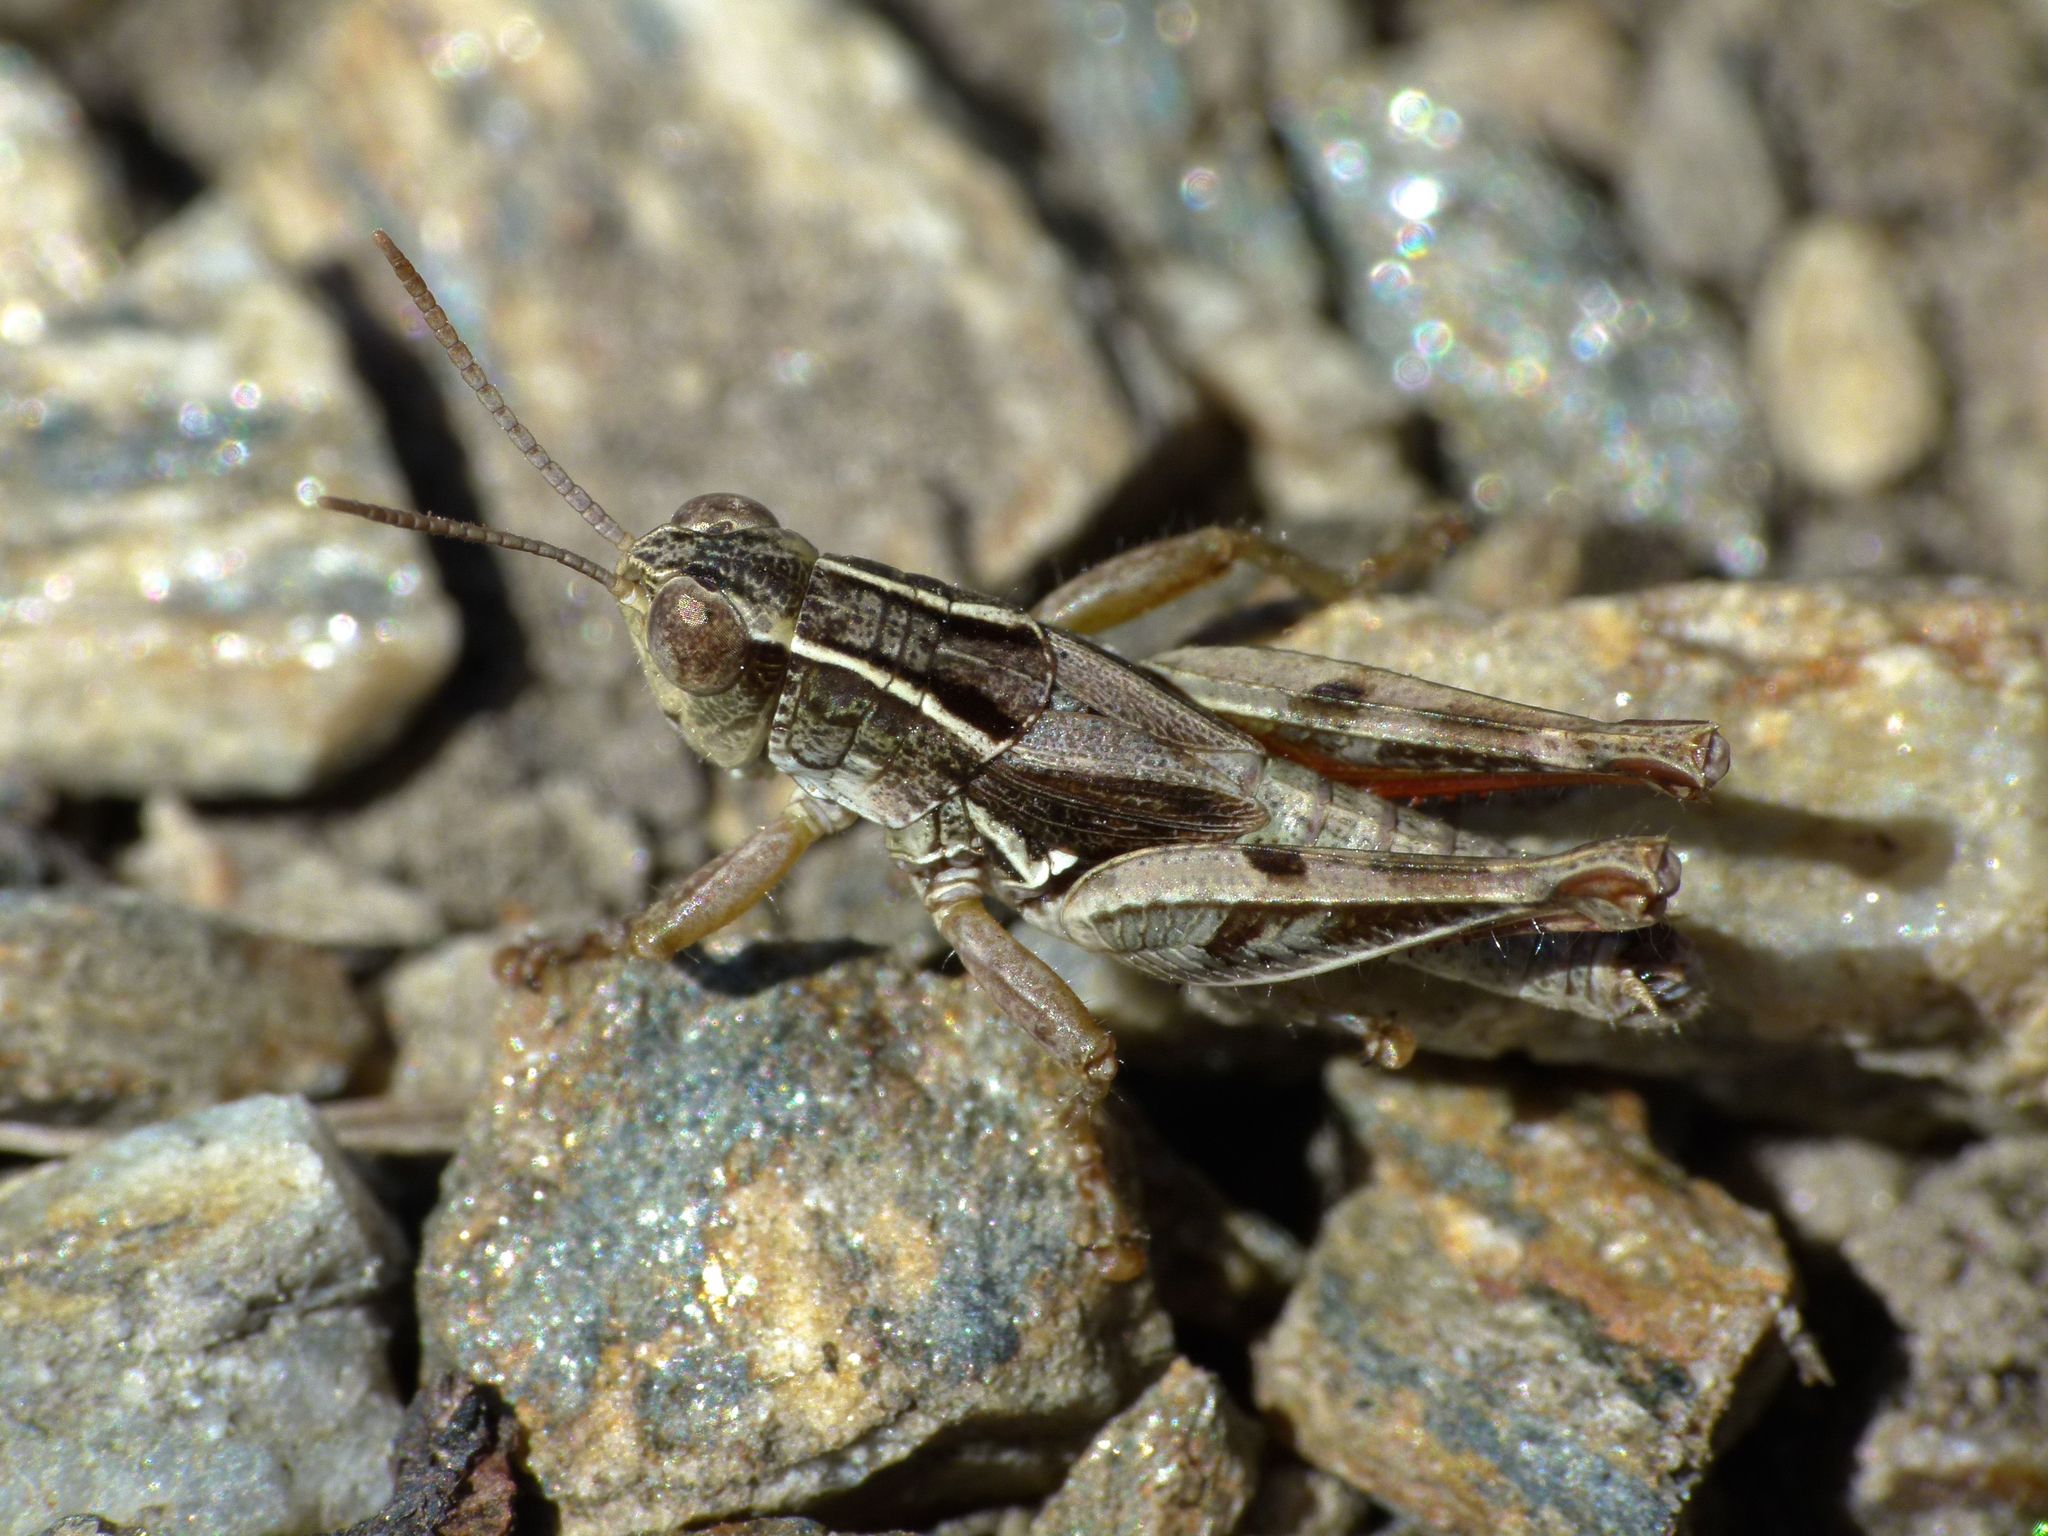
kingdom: Animalia
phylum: Arthropoda
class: Insecta
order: Orthoptera
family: Acrididae
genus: Phaulacridium
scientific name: Phaulacridium marginale
